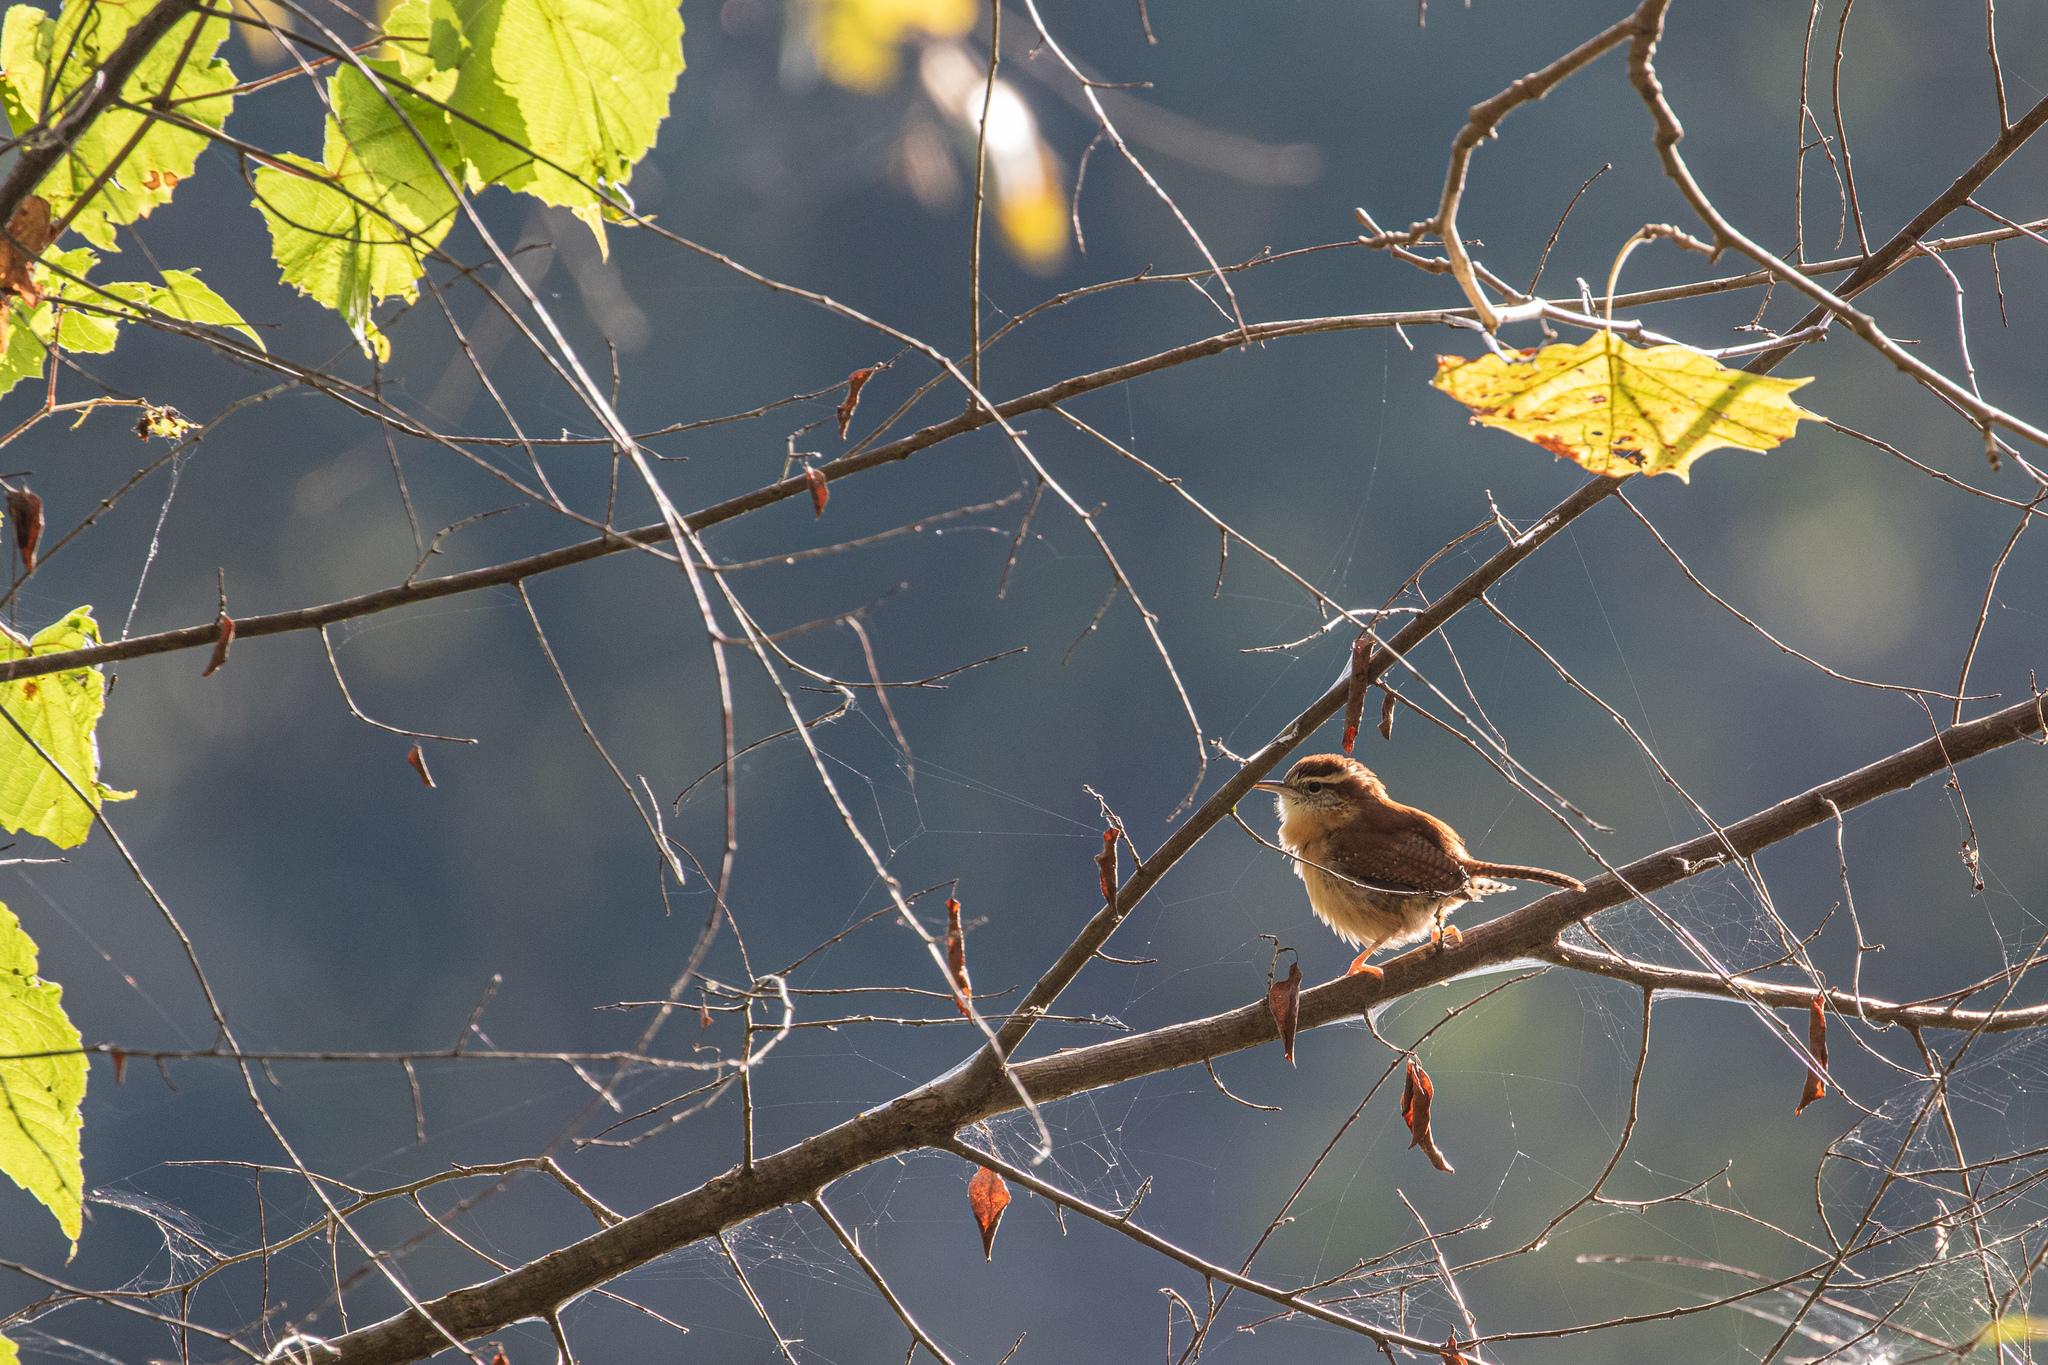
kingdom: Animalia
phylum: Chordata
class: Aves
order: Passeriformes
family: Troglodytidae
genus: Thryothorus
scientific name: Thryothorus ludovicianus
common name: Carolina wren
